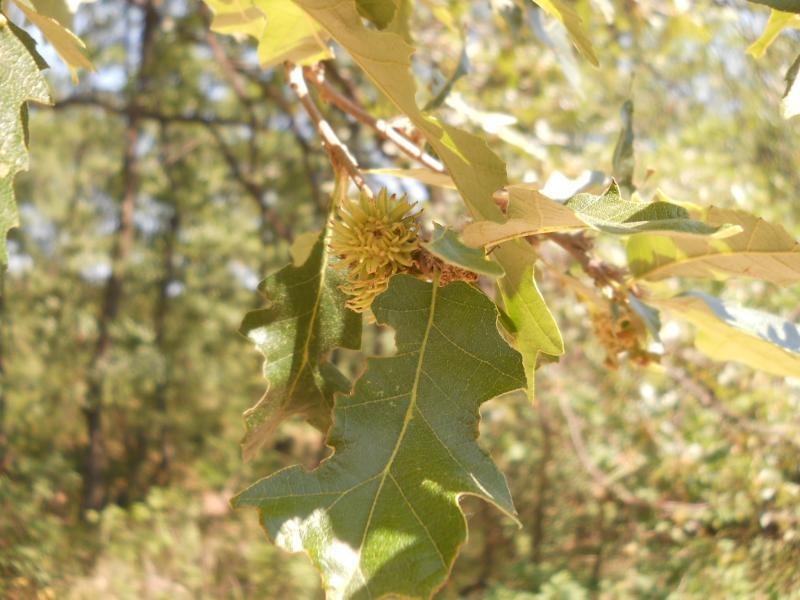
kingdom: Plantae
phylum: Tracheophyta
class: Magnoliopsida
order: Fagales
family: Fagaceae
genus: Quercus
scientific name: Quercus cerris
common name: Turkey oak
